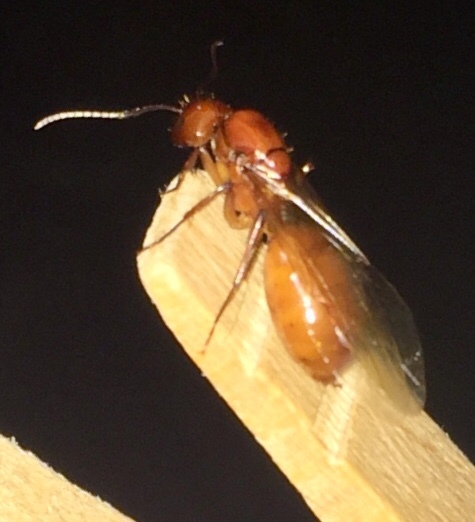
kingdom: Animalia
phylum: Arthropoda
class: Insecta
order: Hymenoptera
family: Formicidae
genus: Camponotus
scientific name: Camponotus castaneus
